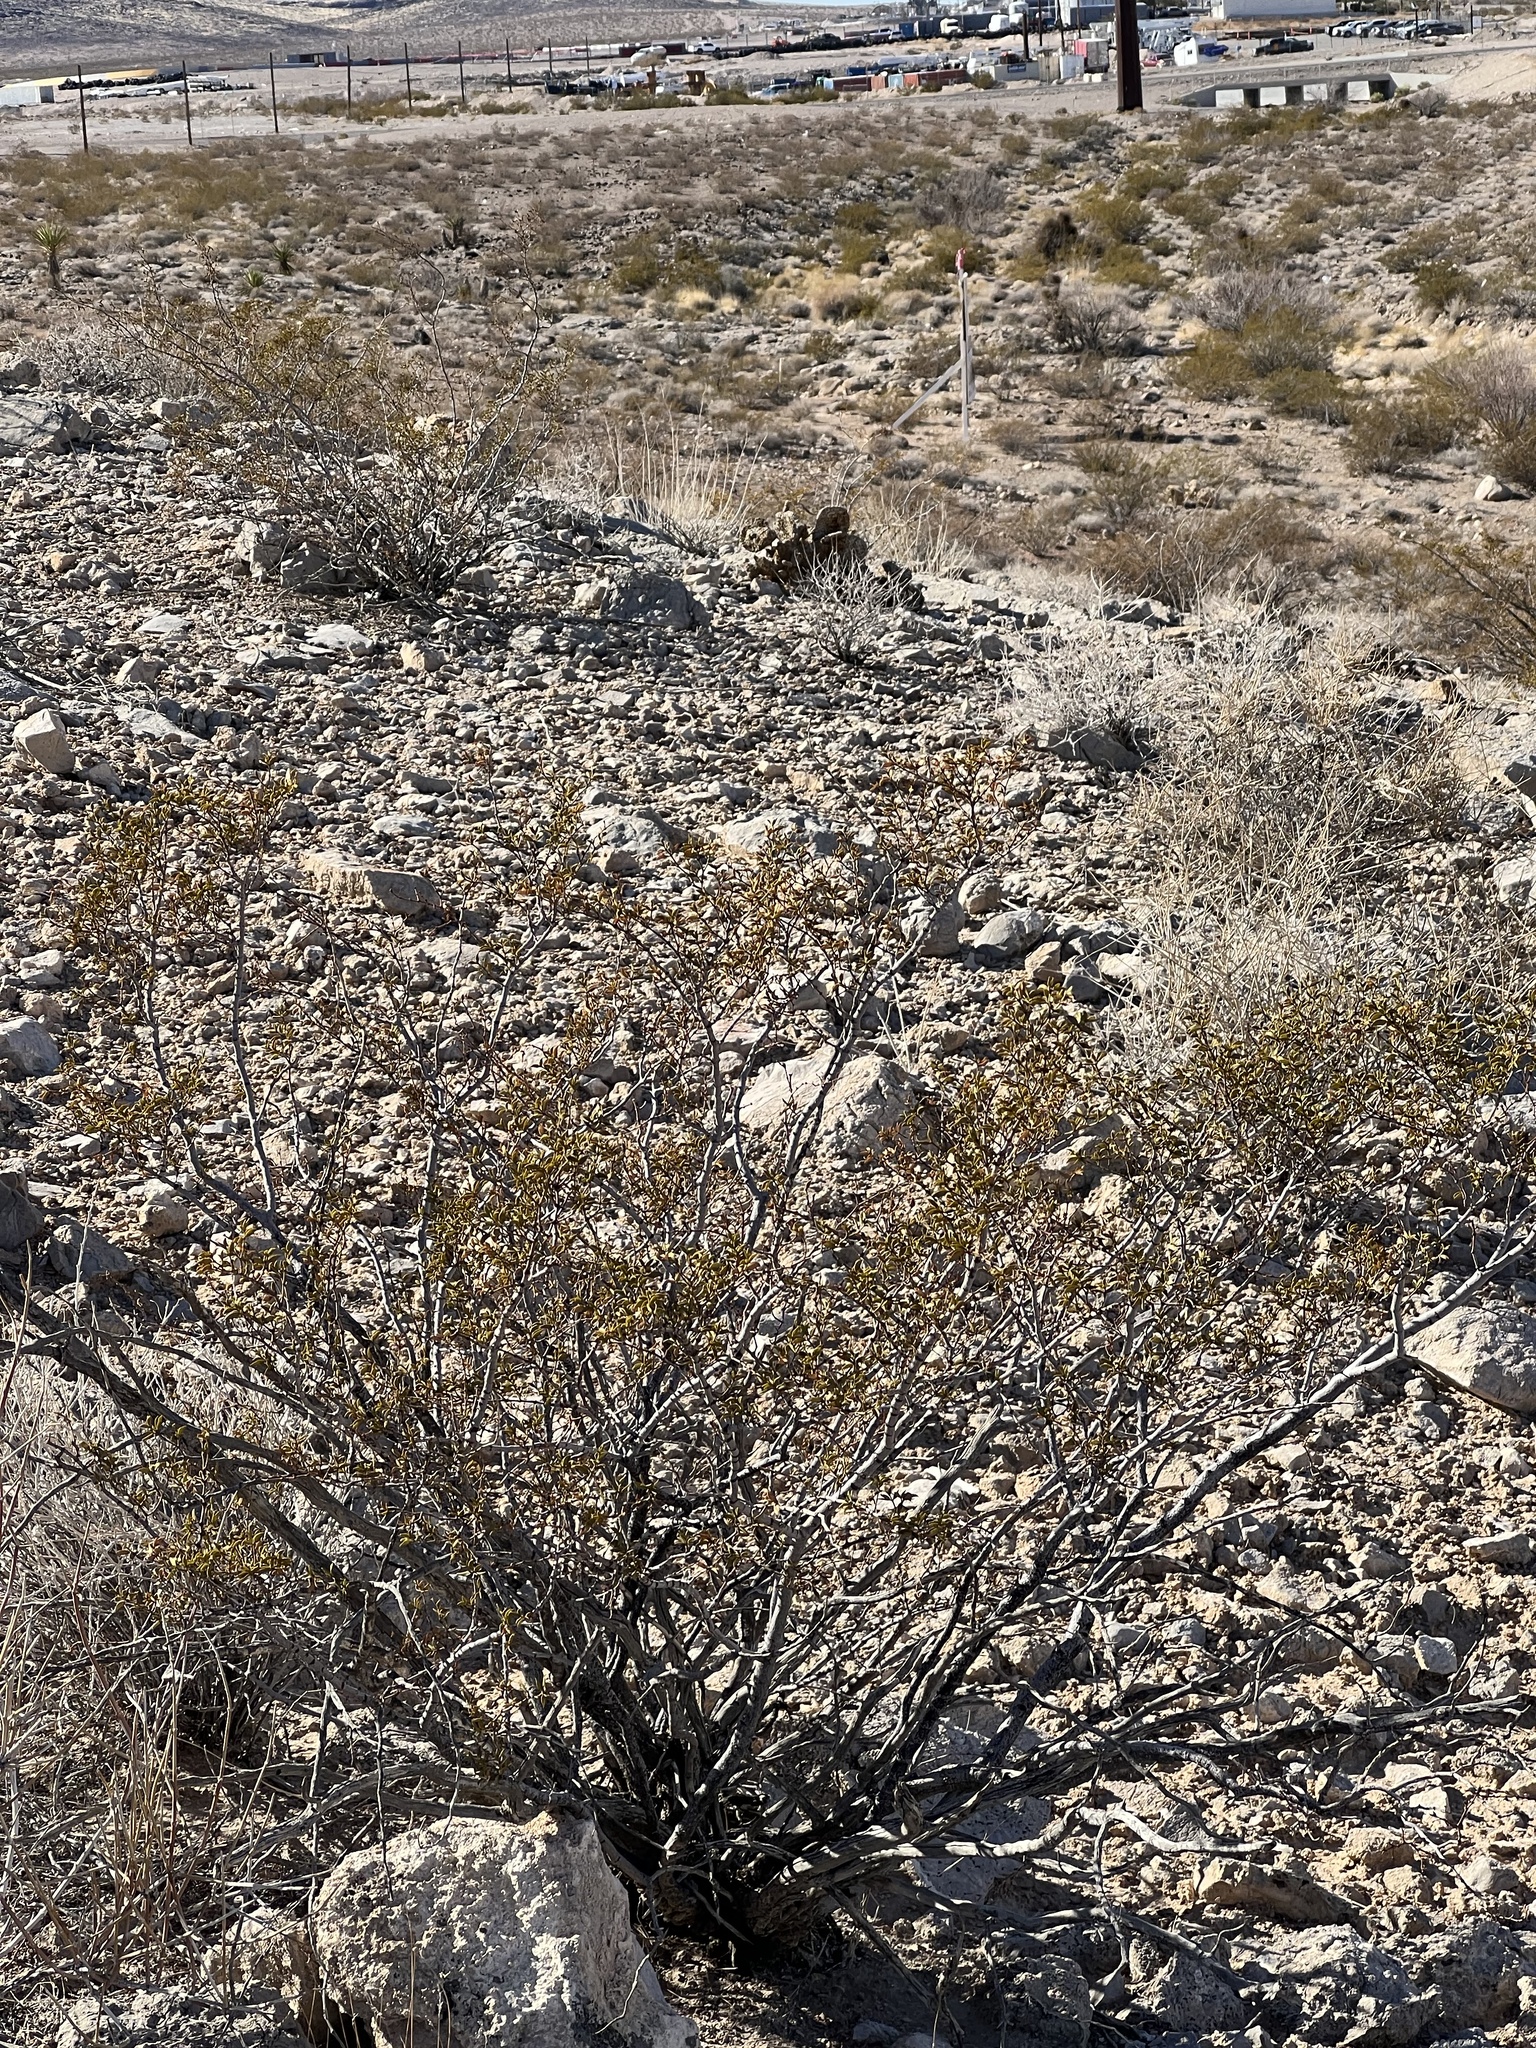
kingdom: Plantae
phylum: Tracheophyta
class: Magnoliopsida
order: Zygophyllales
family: Zygophyllaceae
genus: Larrea
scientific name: Larrea tridentata
